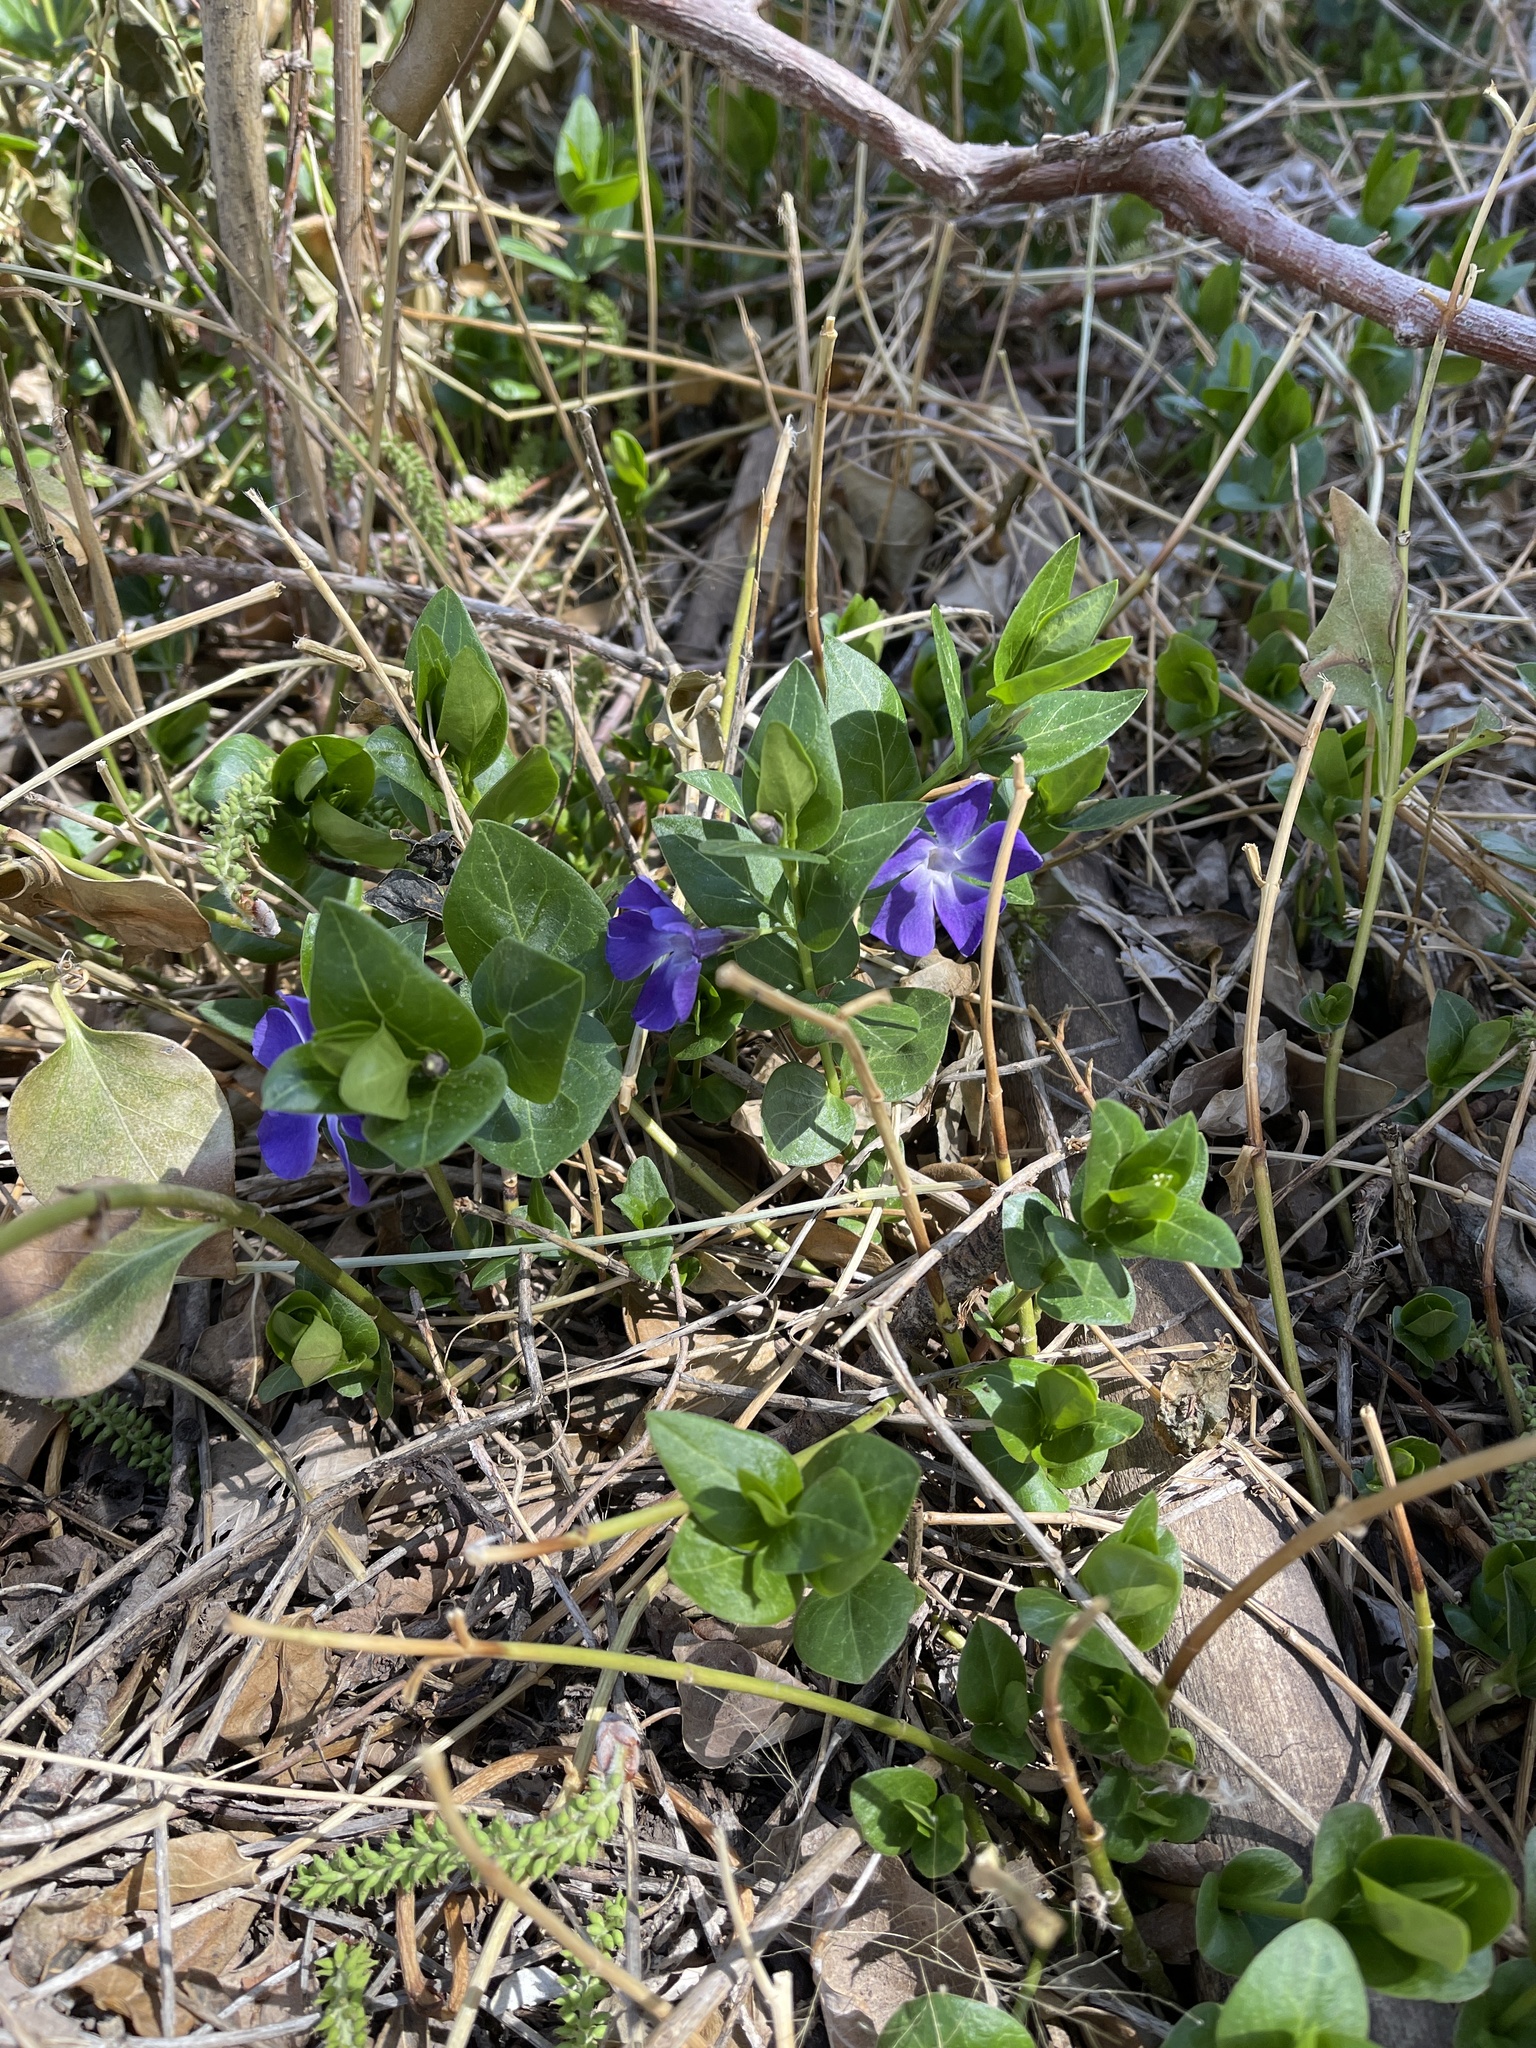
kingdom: Plantae
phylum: Tracheophyta
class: Magnoliopsida
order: Gentianales
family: Apocynaceae
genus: Vinca
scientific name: Vinca major
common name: Greater periwinkle
